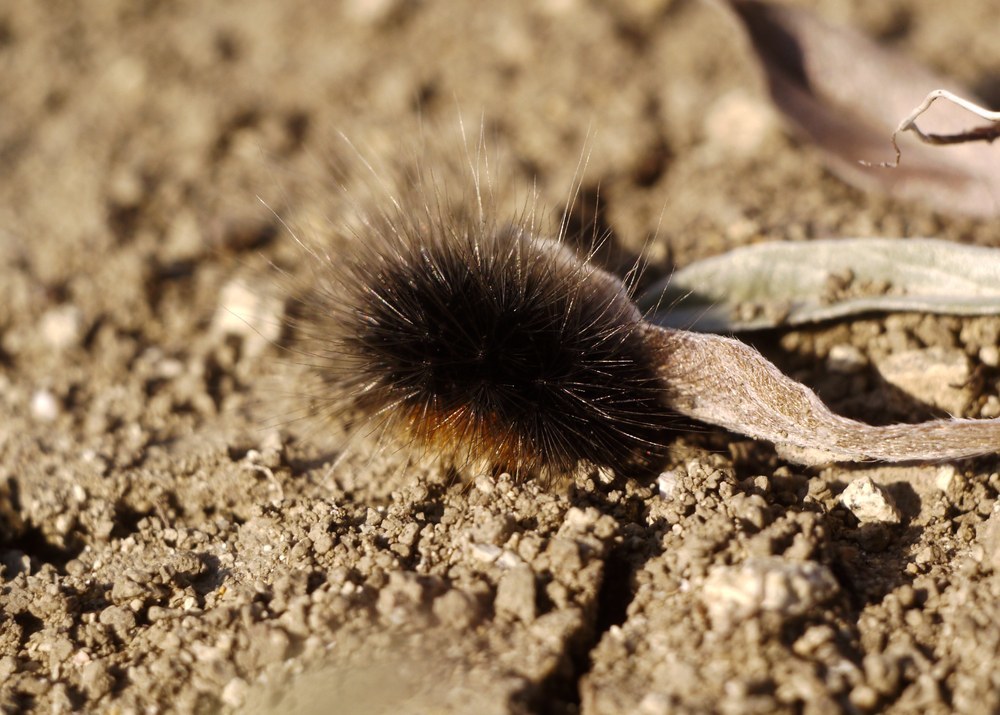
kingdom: Animalia
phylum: Arthropoda
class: Insecta
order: Lepidoptera
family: Erebidae
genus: Eucharia
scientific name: Eucharia festiva
